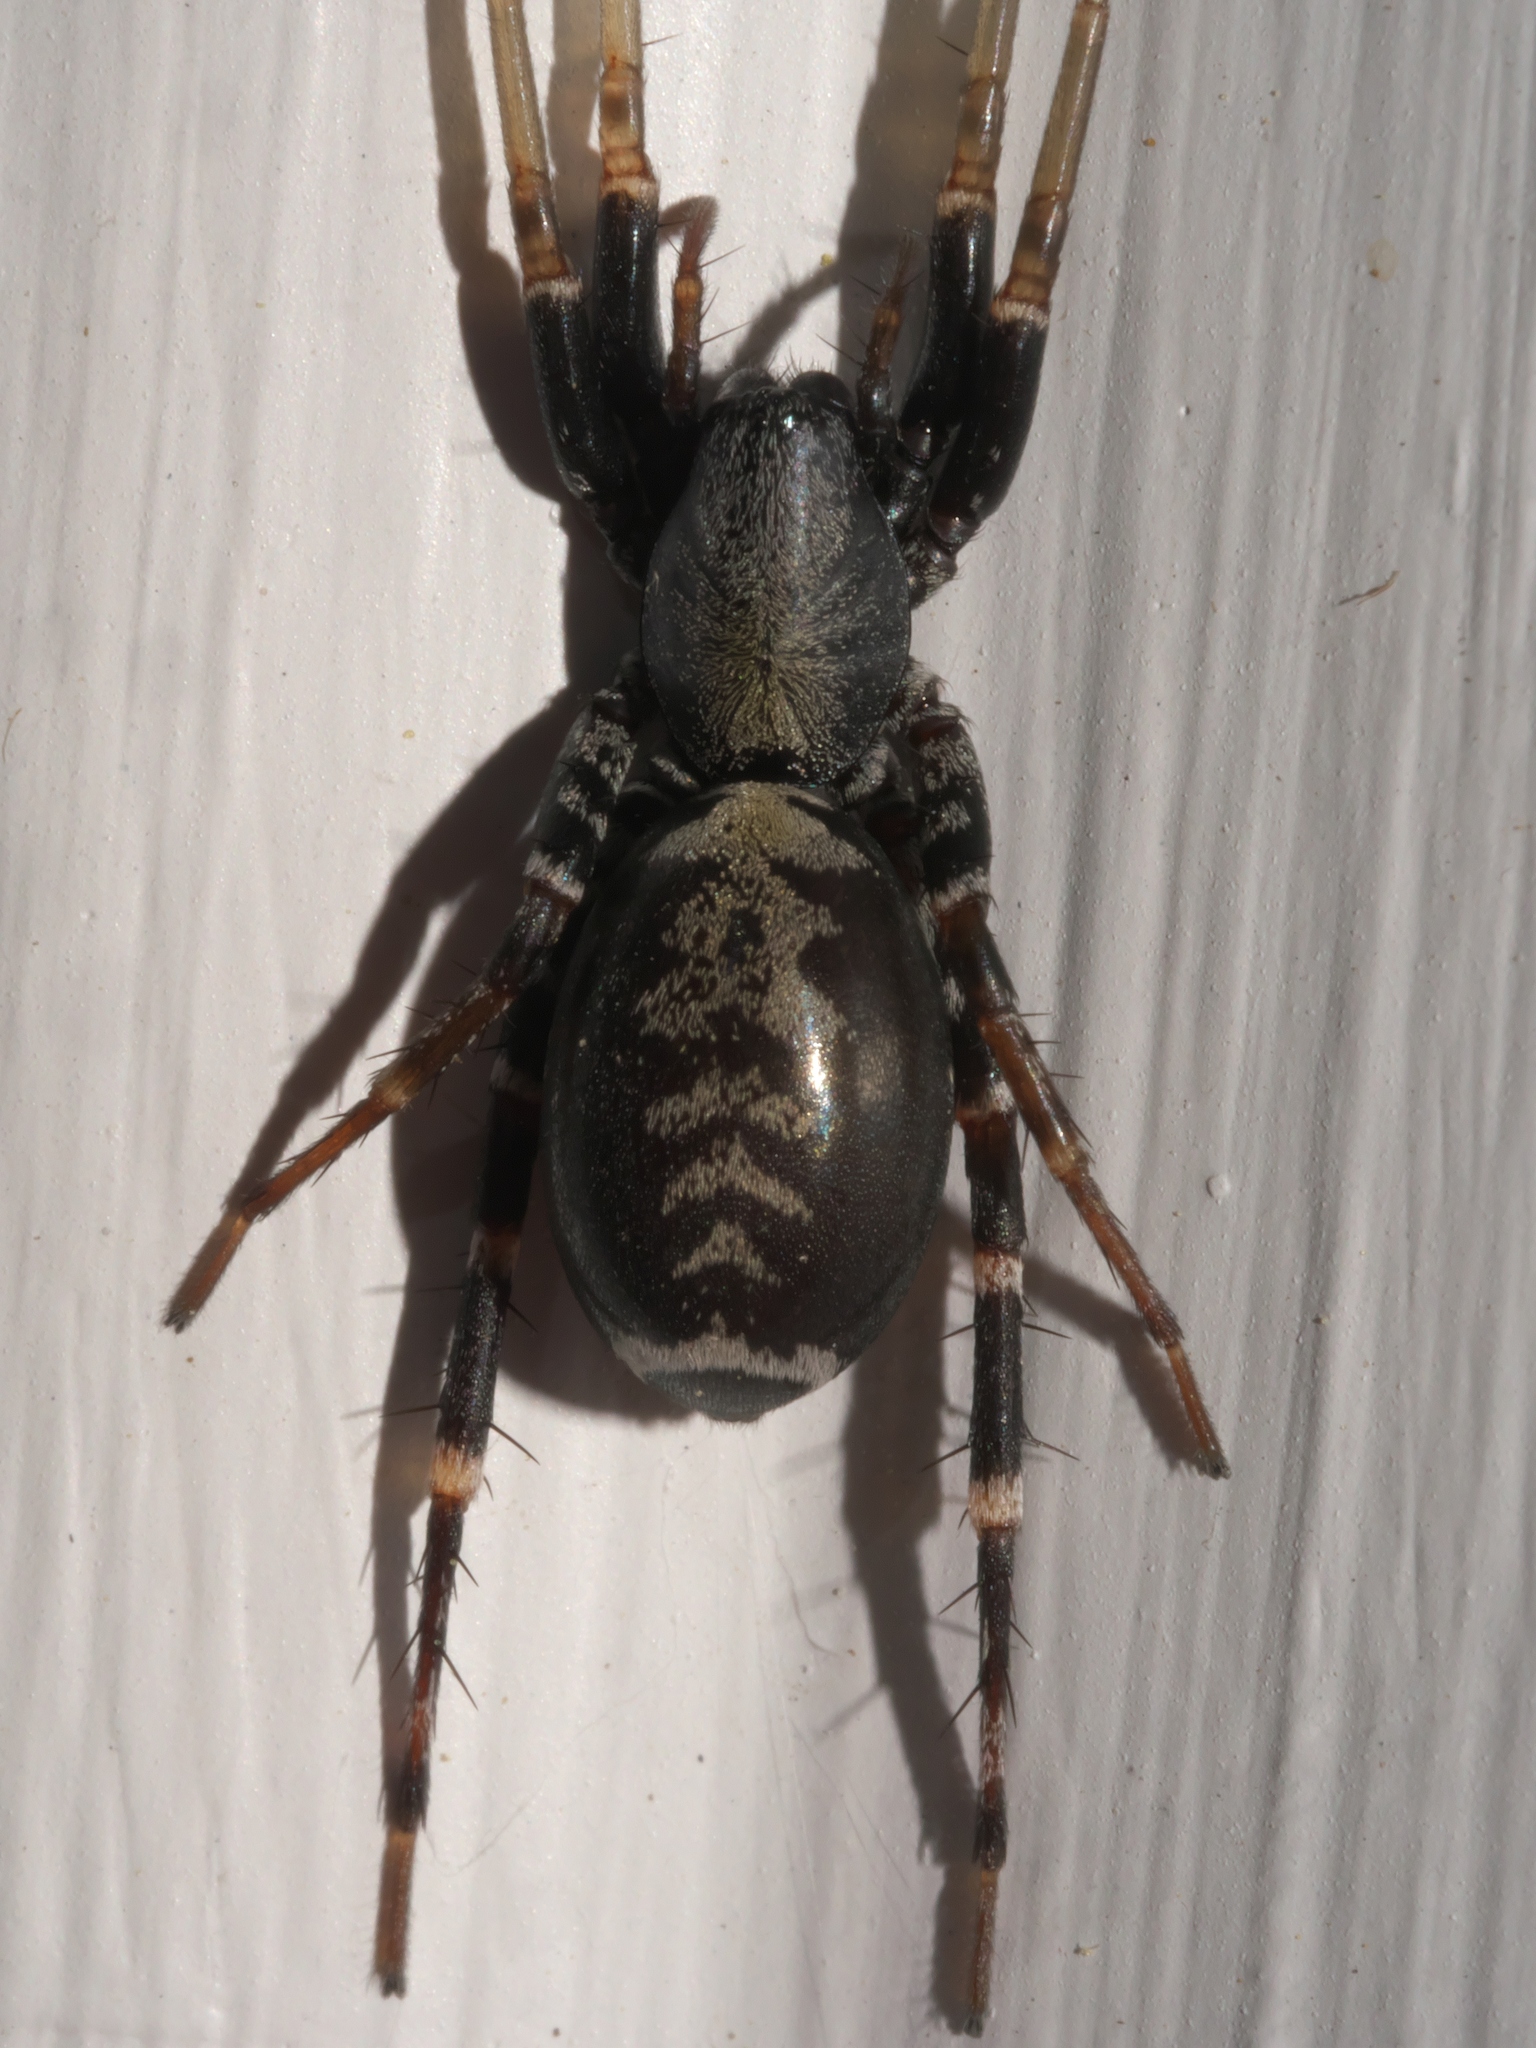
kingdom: Animalia
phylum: Arthropoda
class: Arachnida
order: Araneae
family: Corinnidae
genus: Castianeira
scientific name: Castianeira longipalpa
